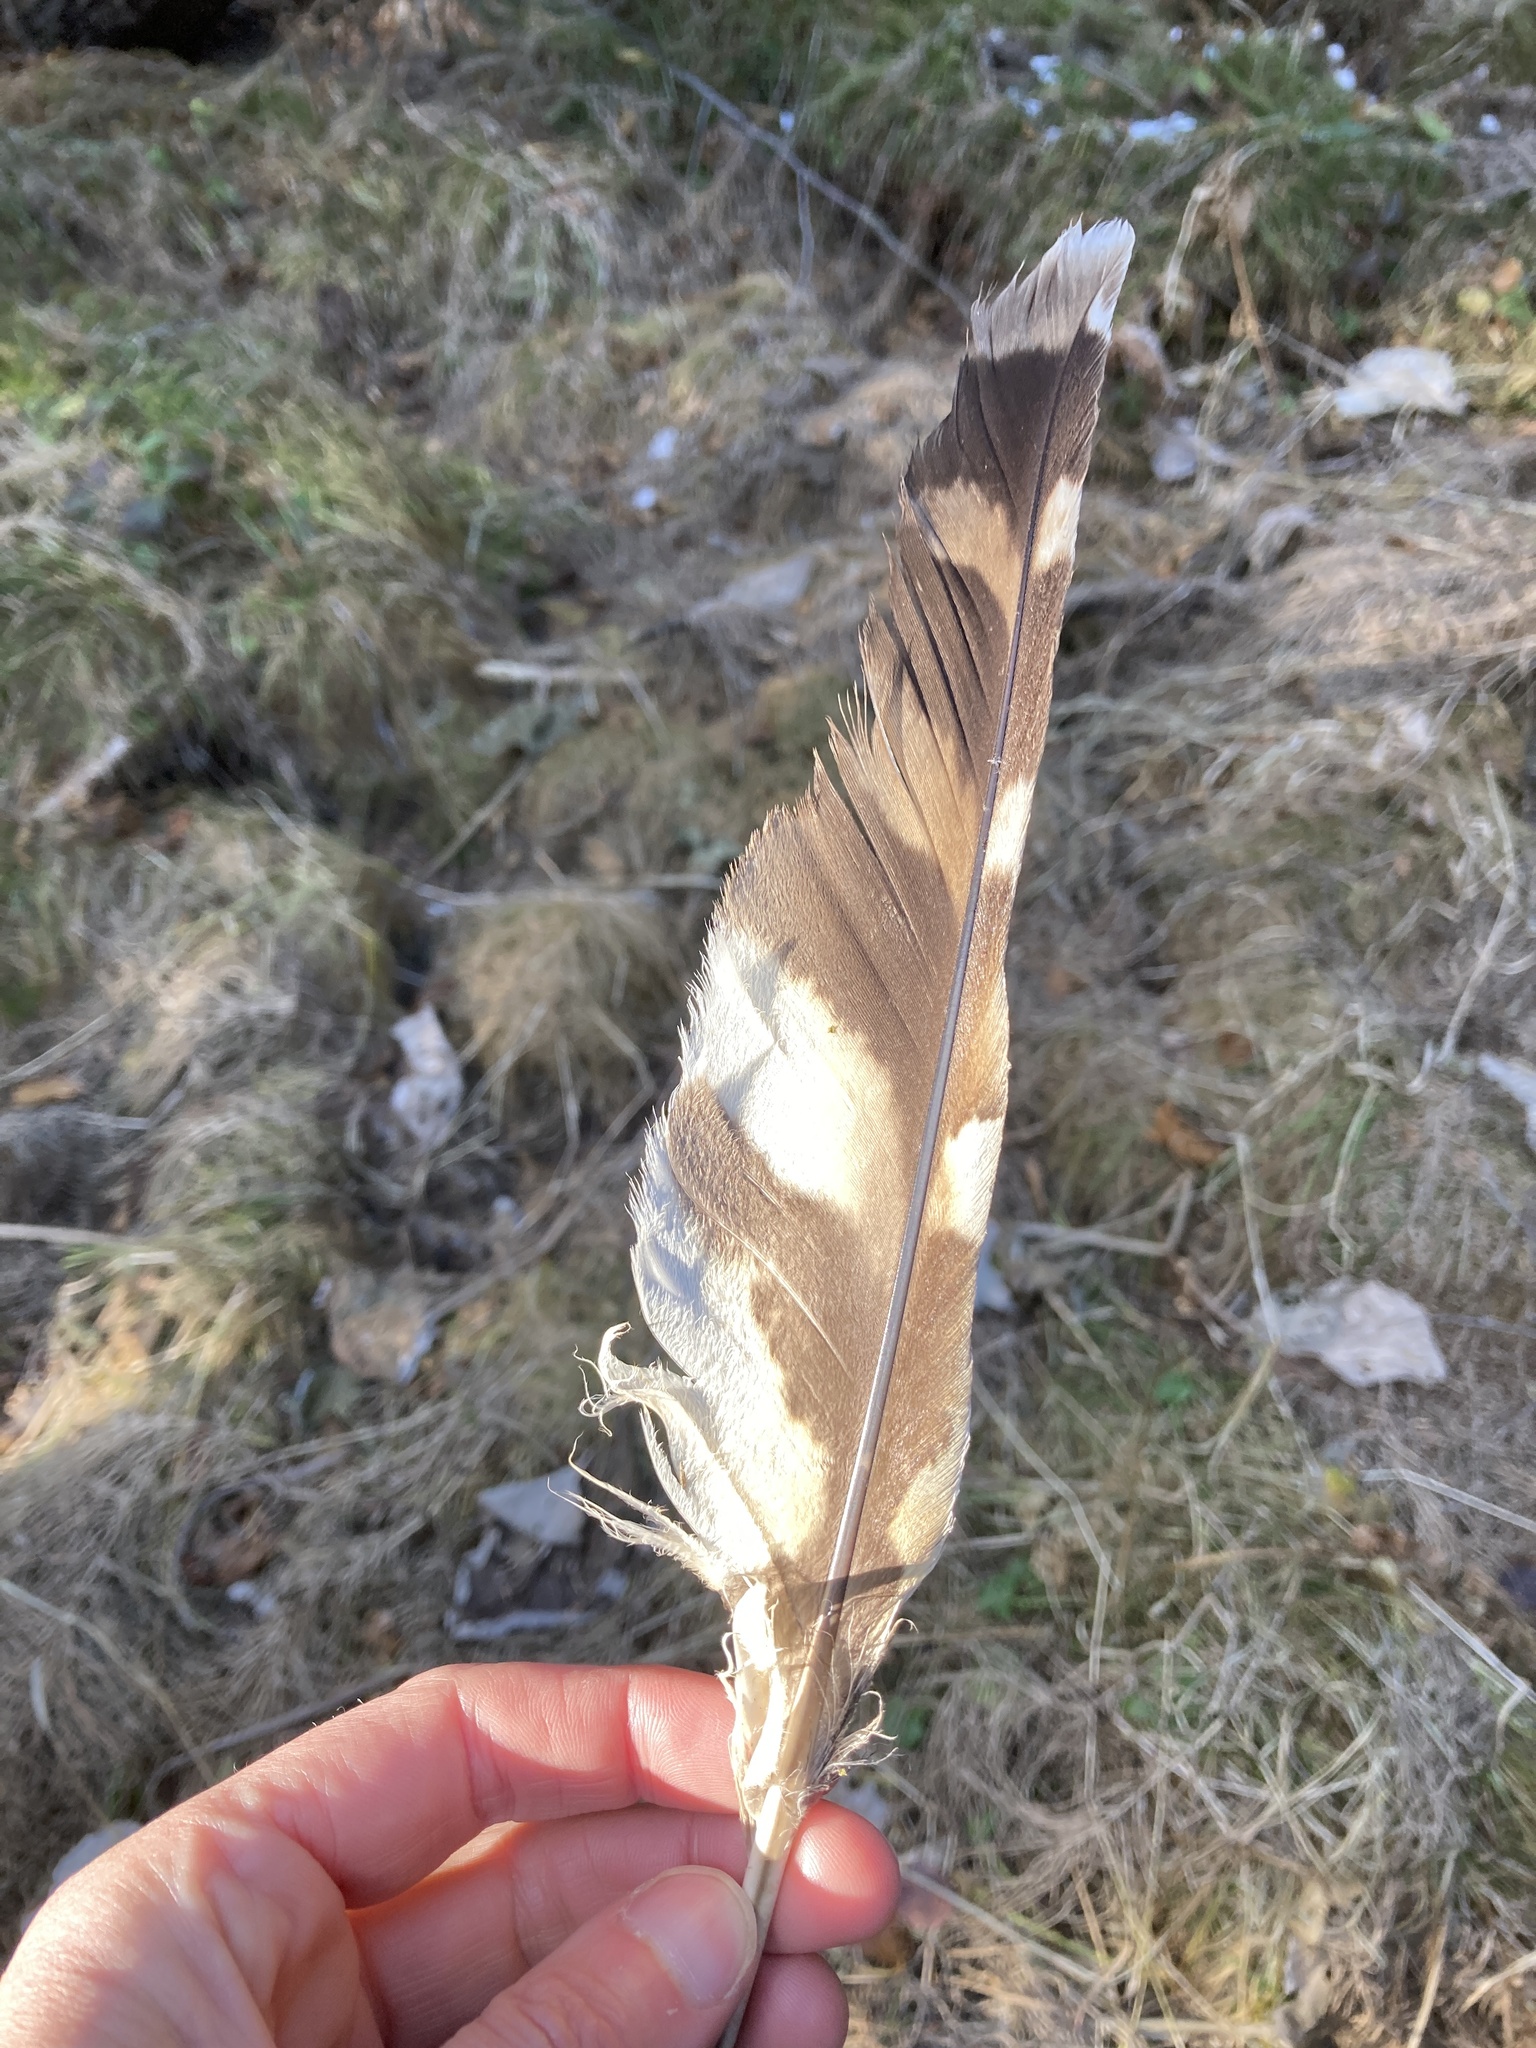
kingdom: Animalia
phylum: Chordata
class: Aves
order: Strigiformes
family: Strigidae
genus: Strix
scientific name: Strix varia
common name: Barred owl
